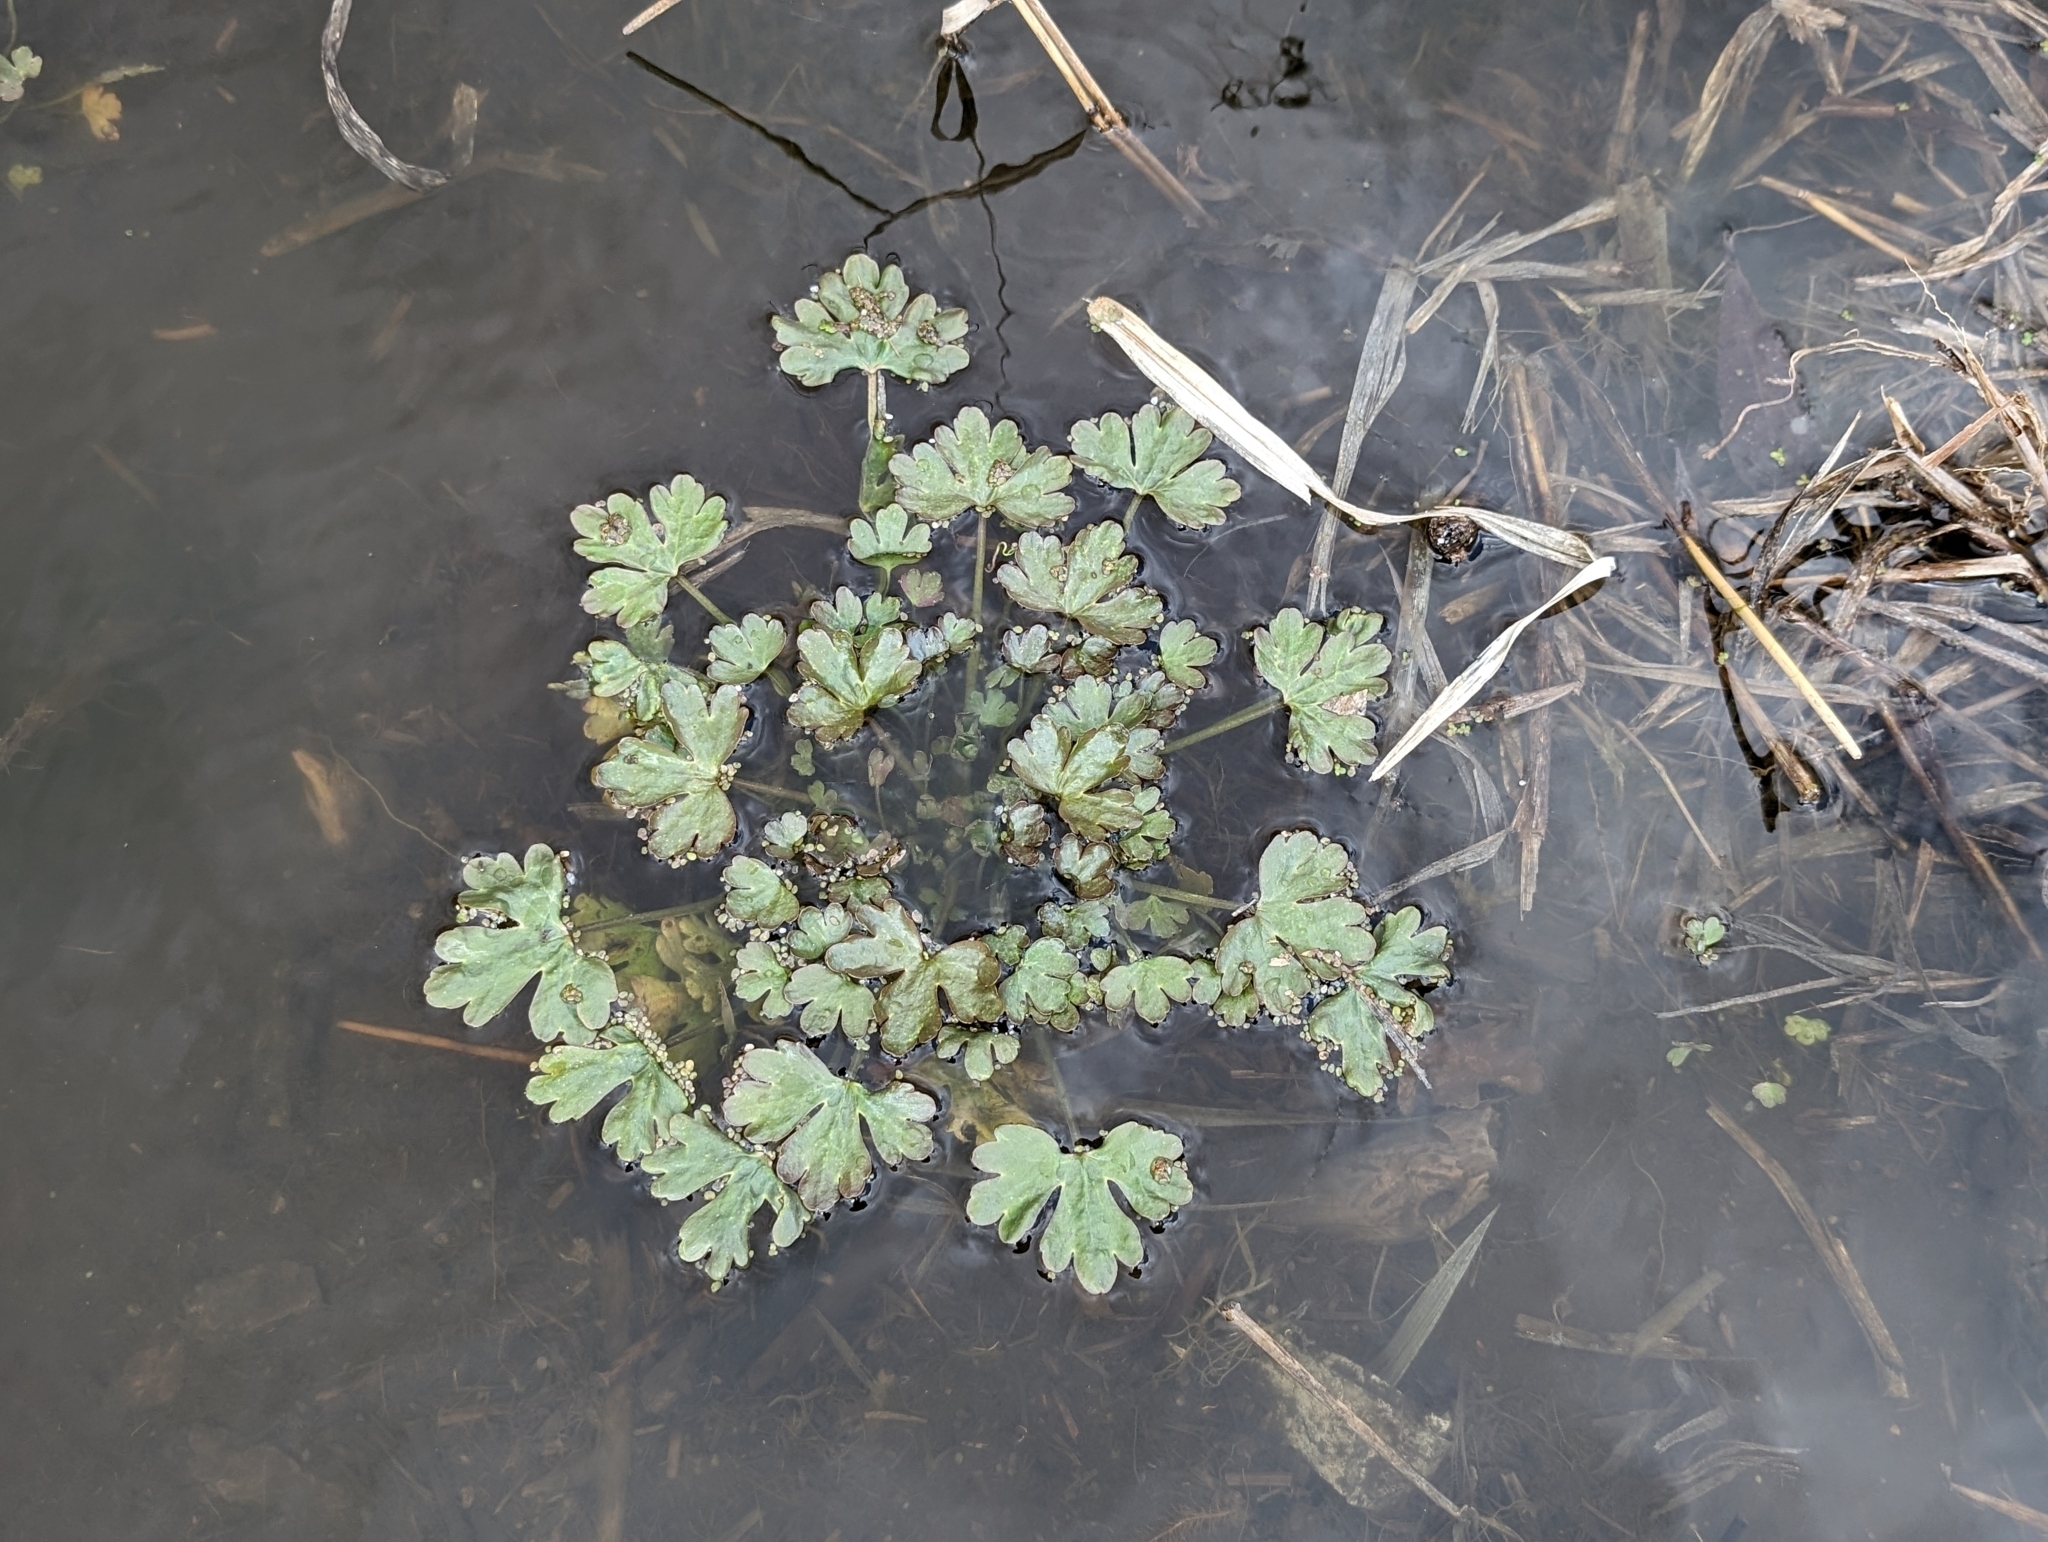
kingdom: Plantae
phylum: Tracheophyta
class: Magnoliopsida
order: Ranunculales
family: Ranunculaceae
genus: Ranunculus
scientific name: Ranunculus sceleratus
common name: Celery-leaved buttercup
